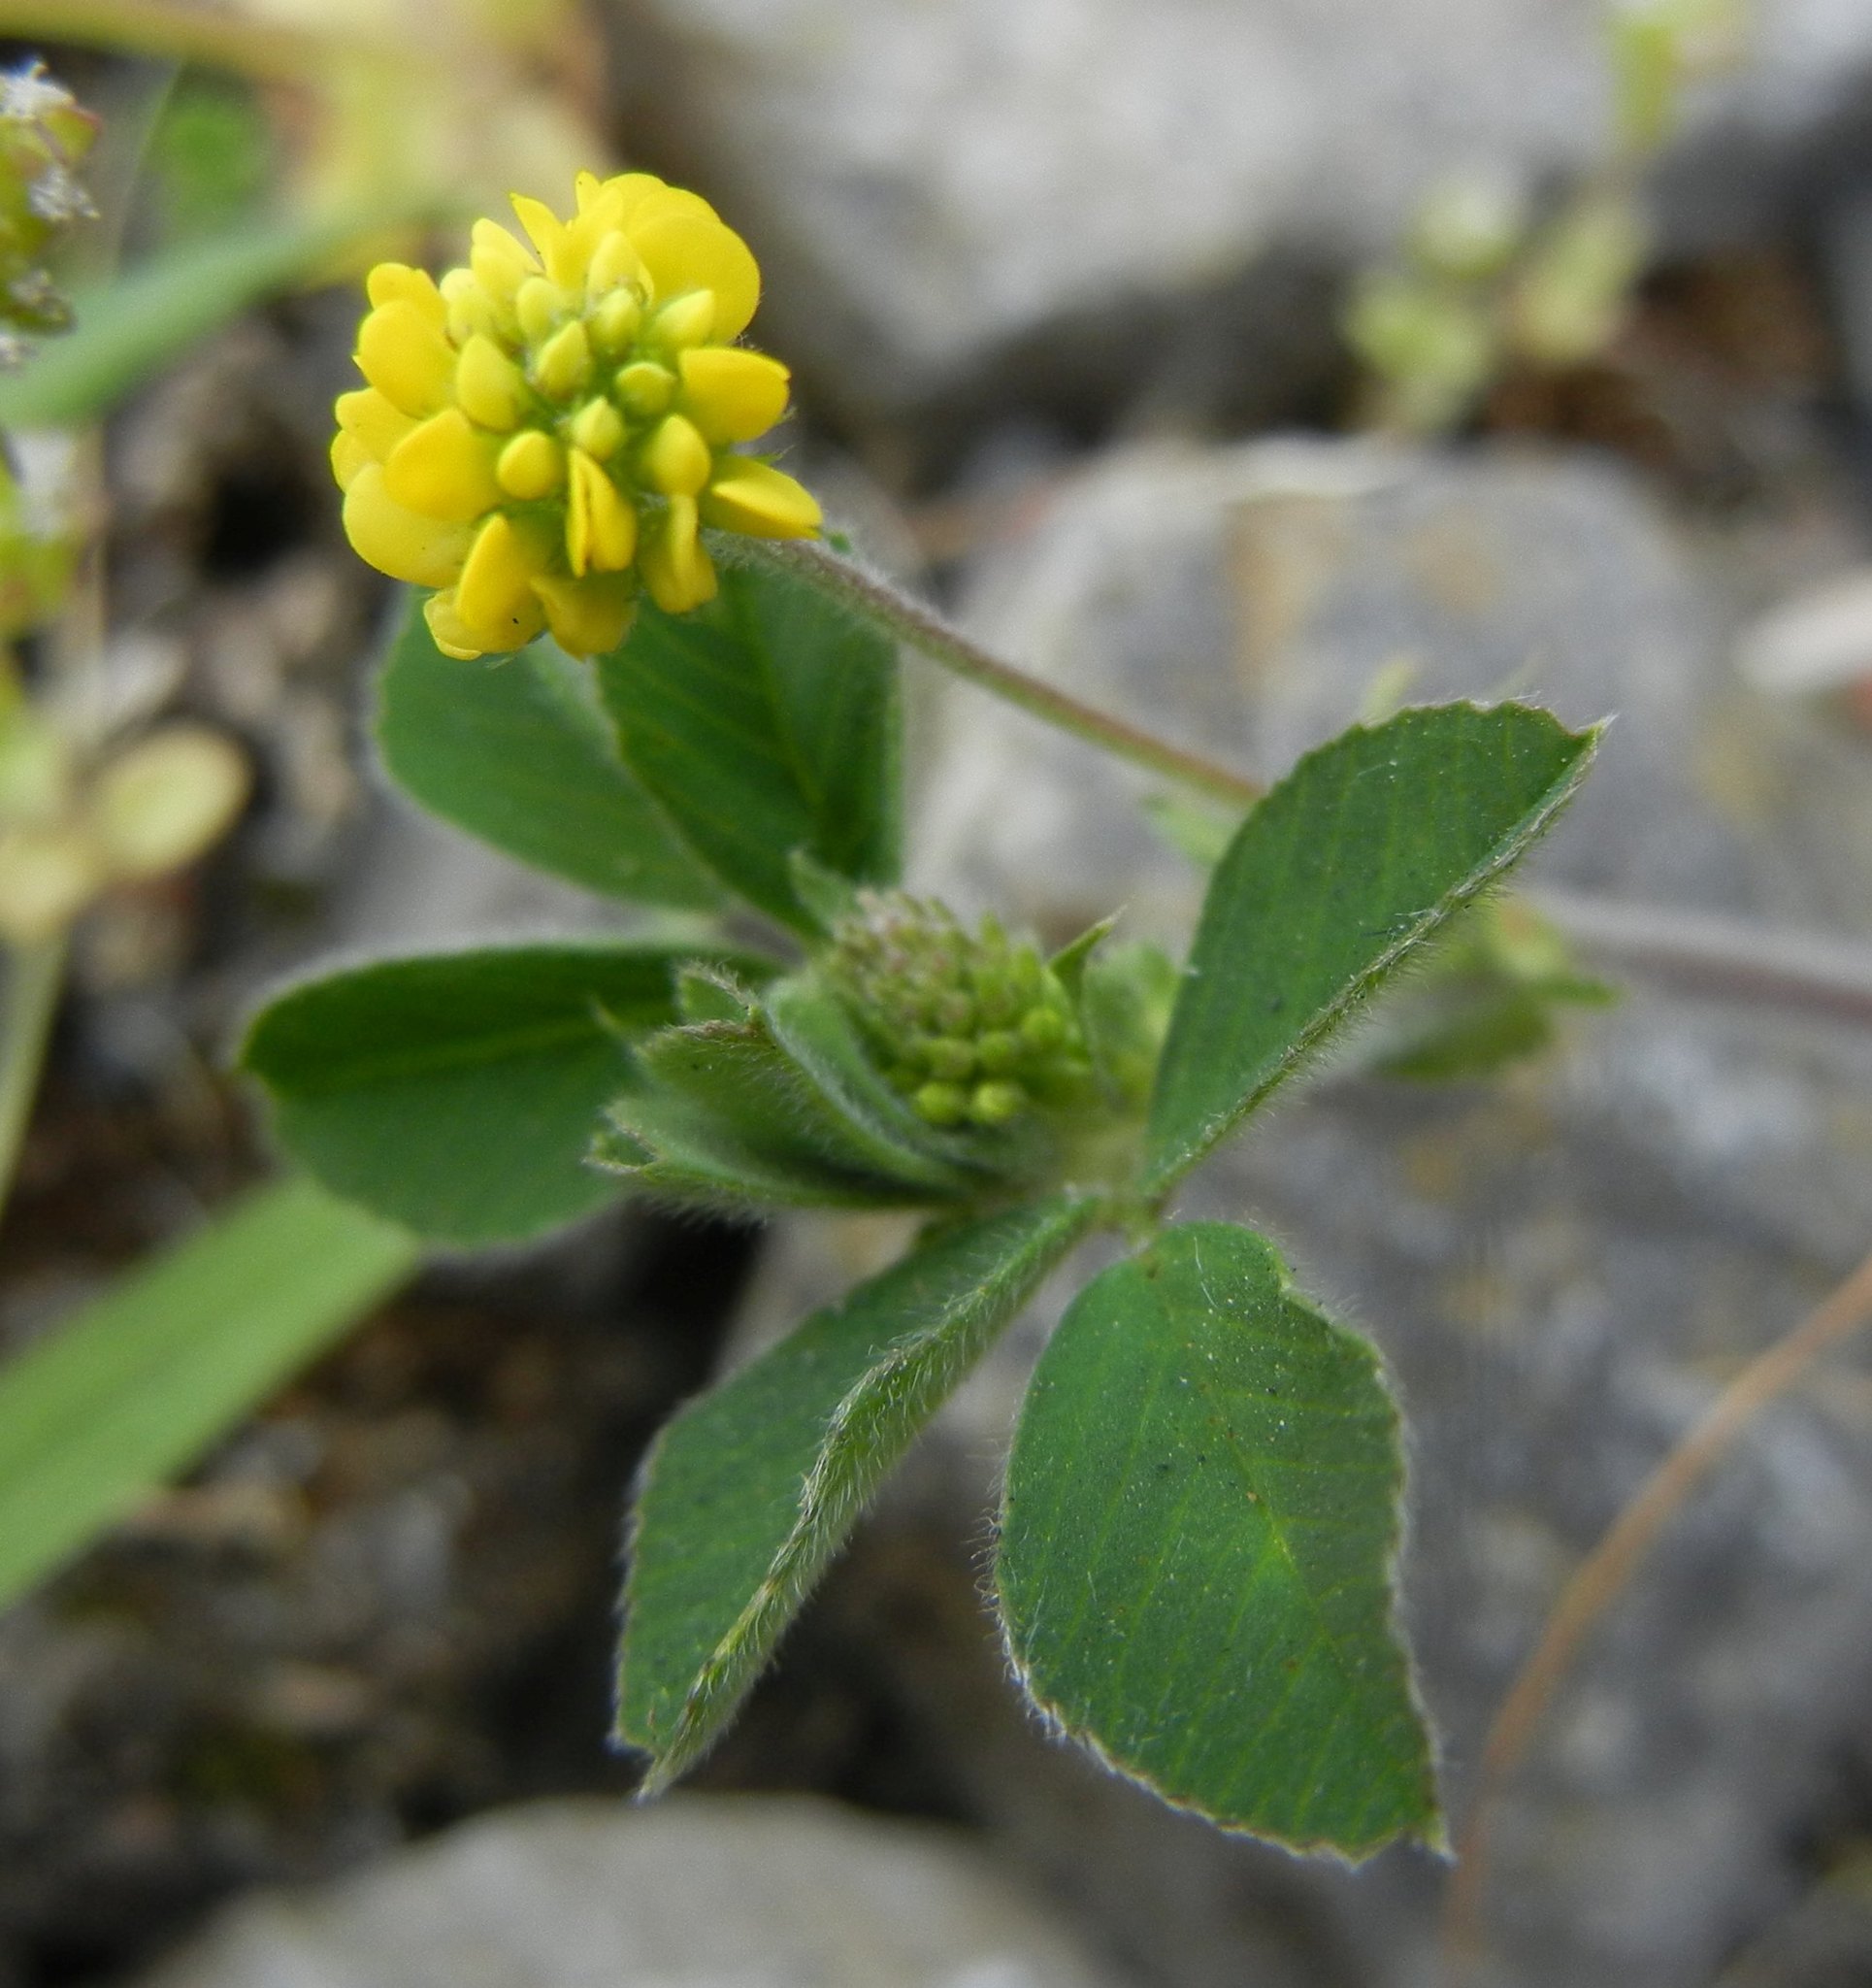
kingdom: Plantae
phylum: Tracheophyta
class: Magnoliopsida
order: Fabales
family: Fabaceae
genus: Medicago
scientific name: Medicago lupulina
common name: Black medick
